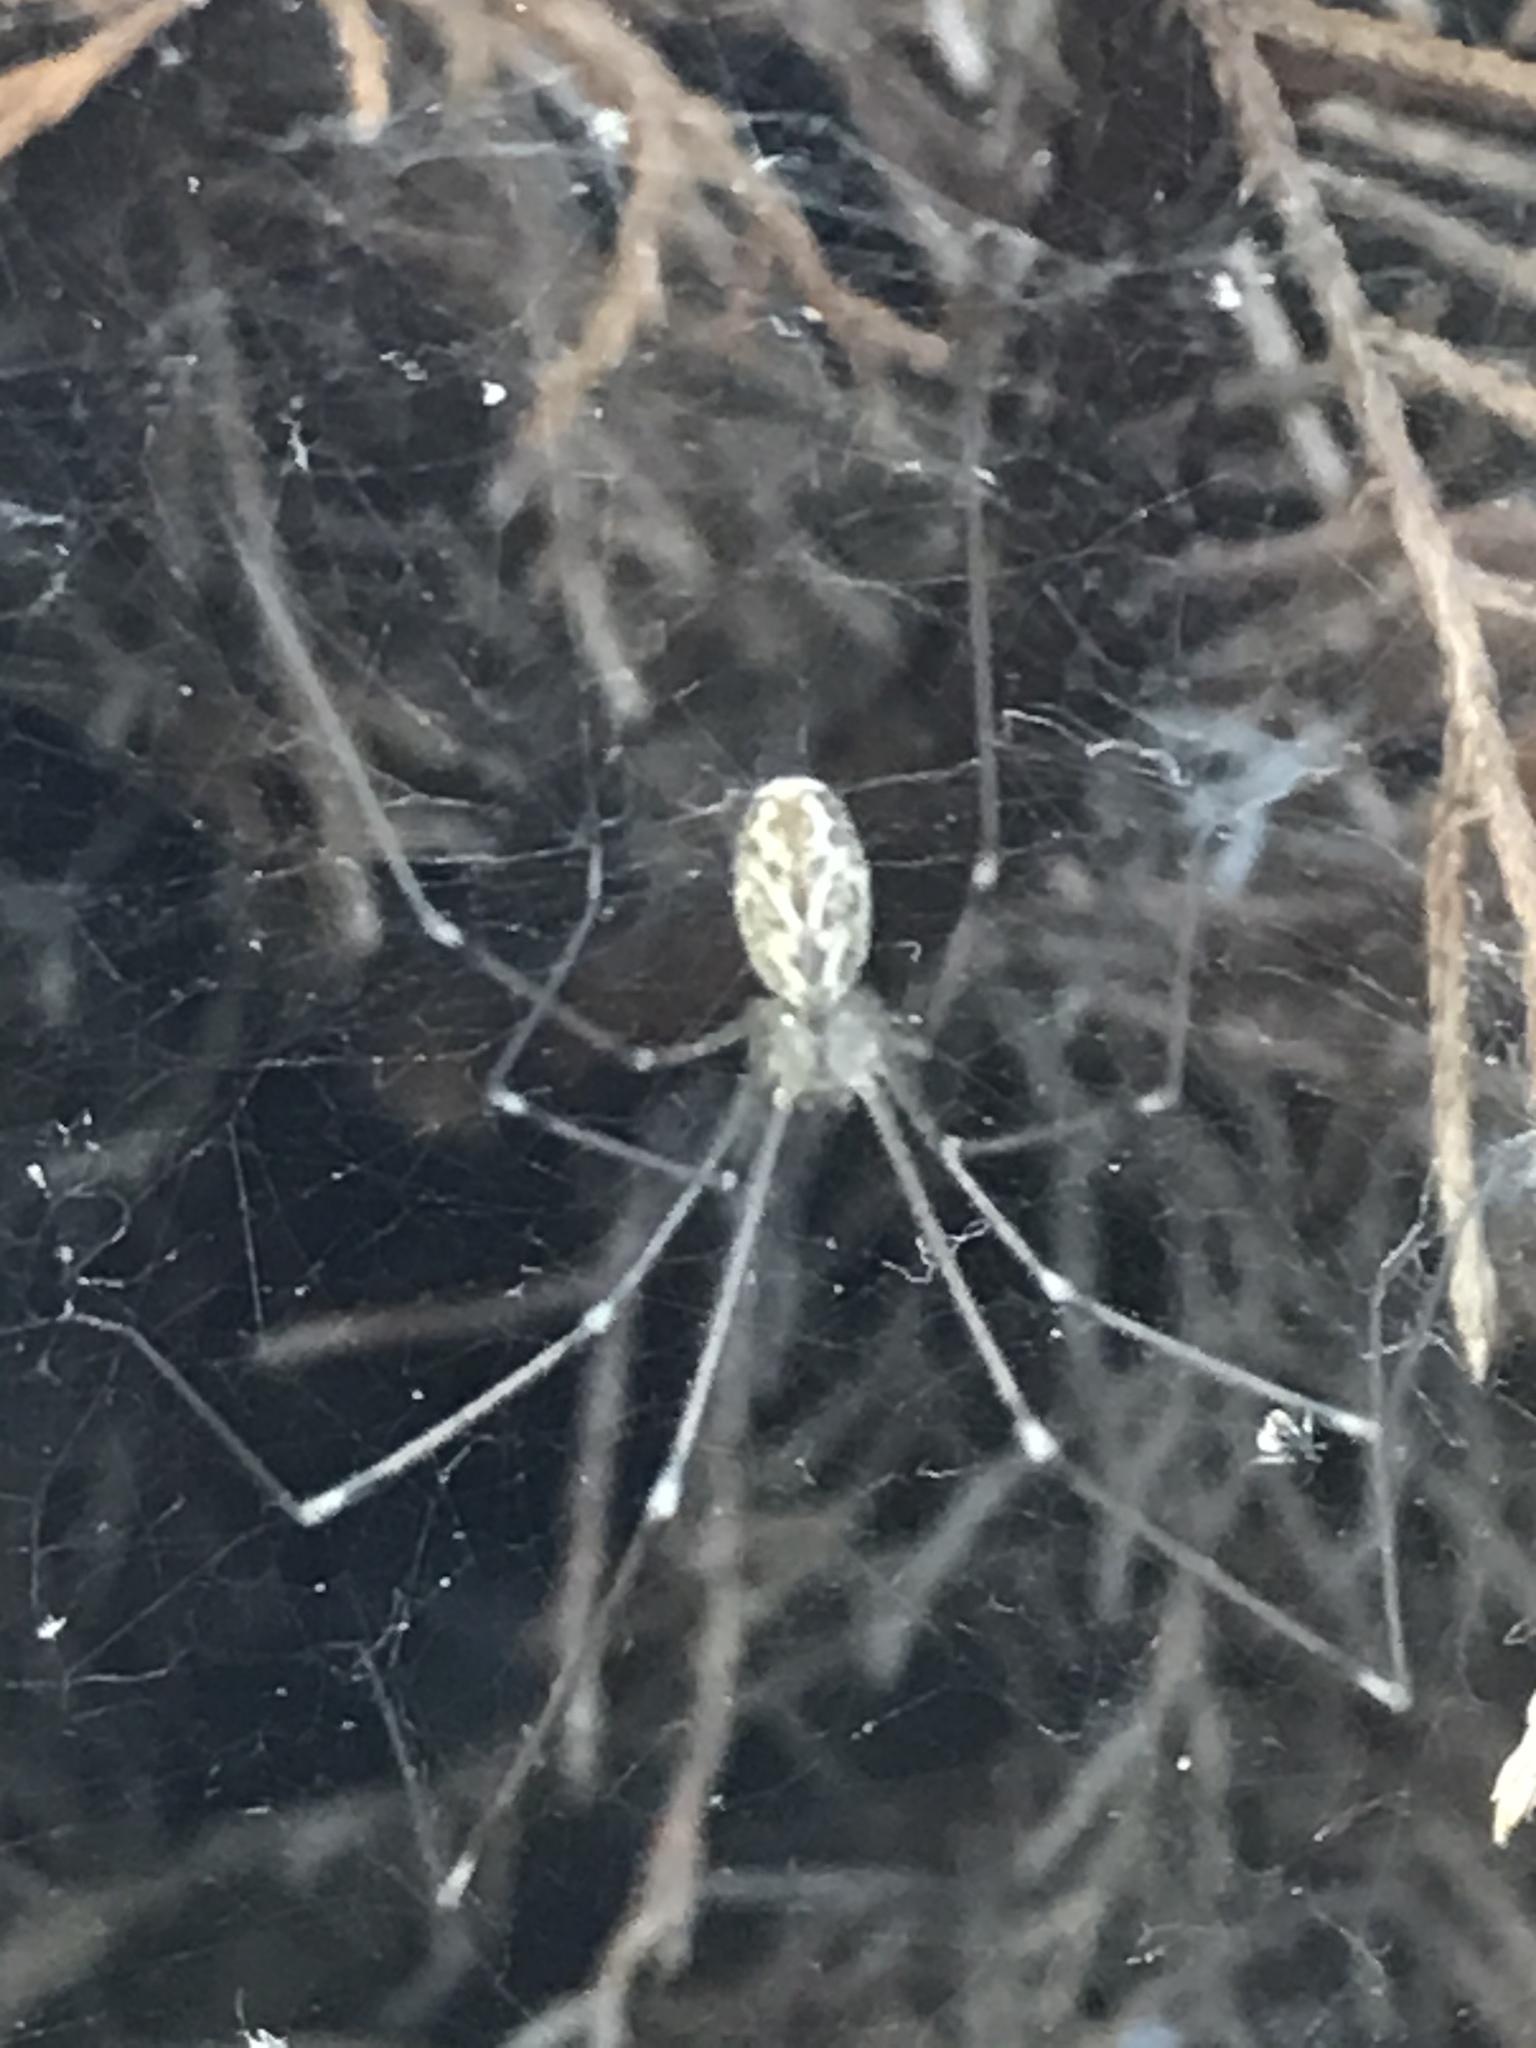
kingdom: Animalia
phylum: Arthropoda
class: Arachnida
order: Araneae
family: Pholcidae
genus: Holocnemus
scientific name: Holocnemus pluchei
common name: Marbled cellar spider
